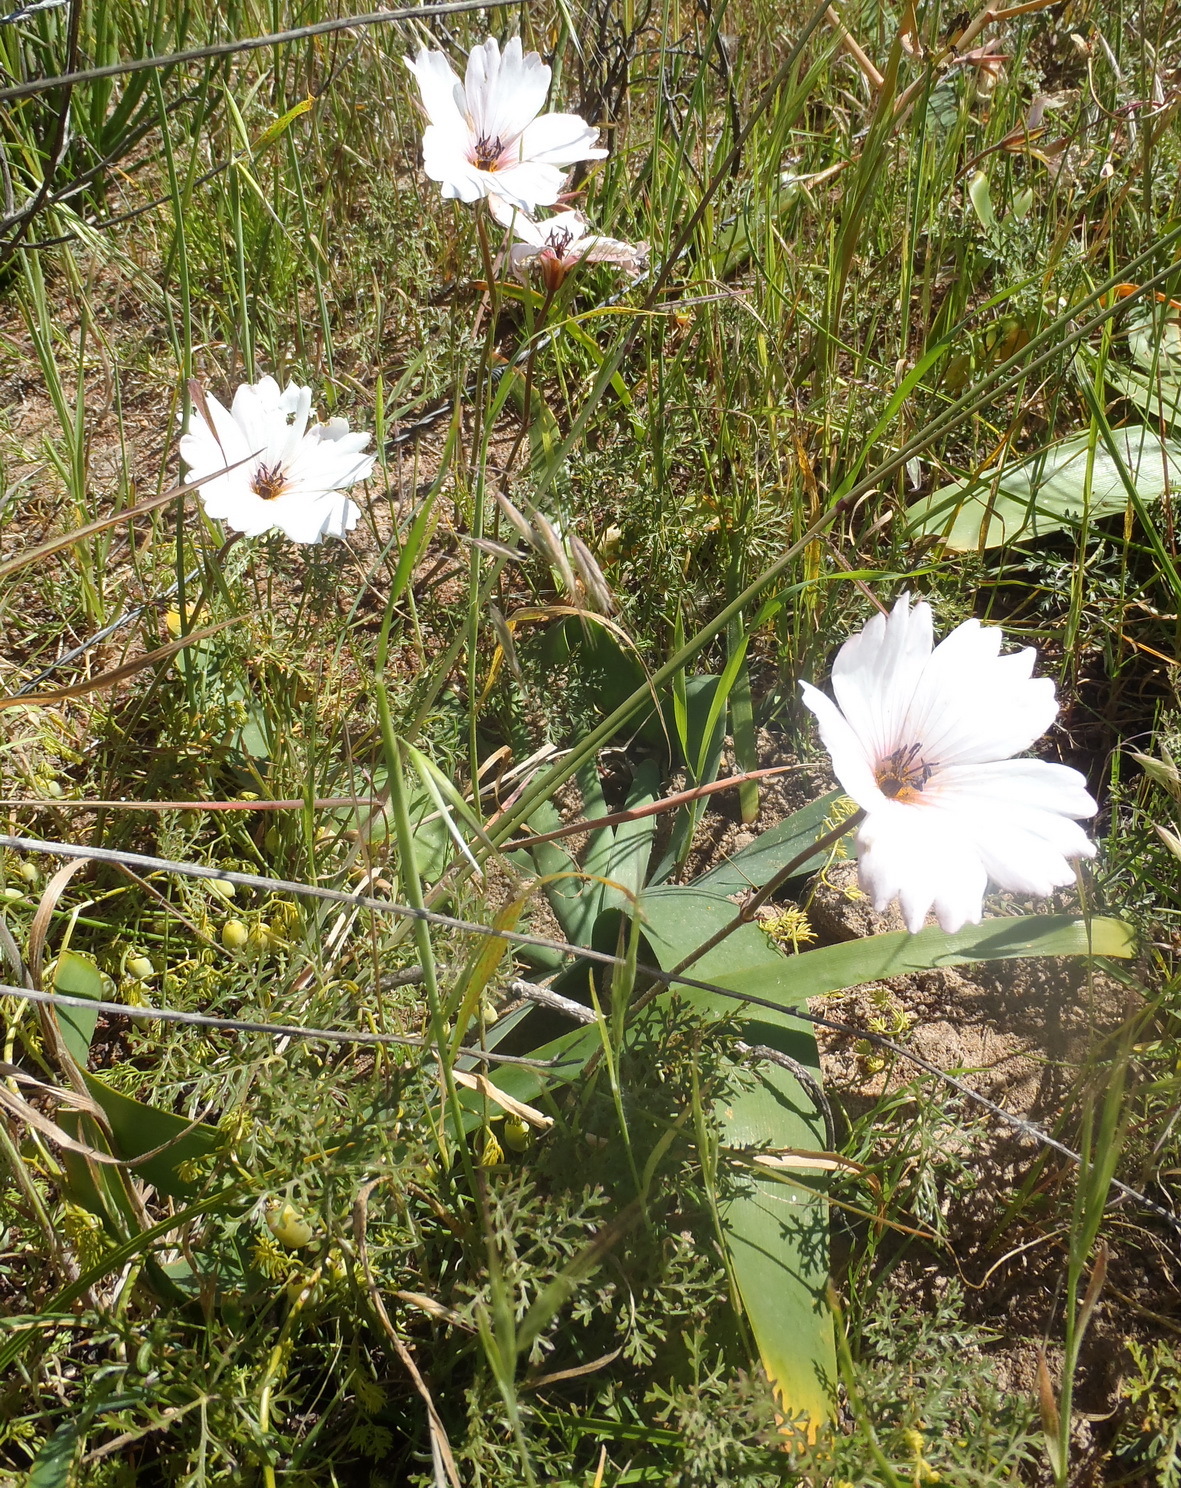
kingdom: Plantae
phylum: Tracheophyta
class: Magnoliopsida
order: Geraniales
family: Geraniaceae
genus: Monsonia
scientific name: Monsonia speciosa
